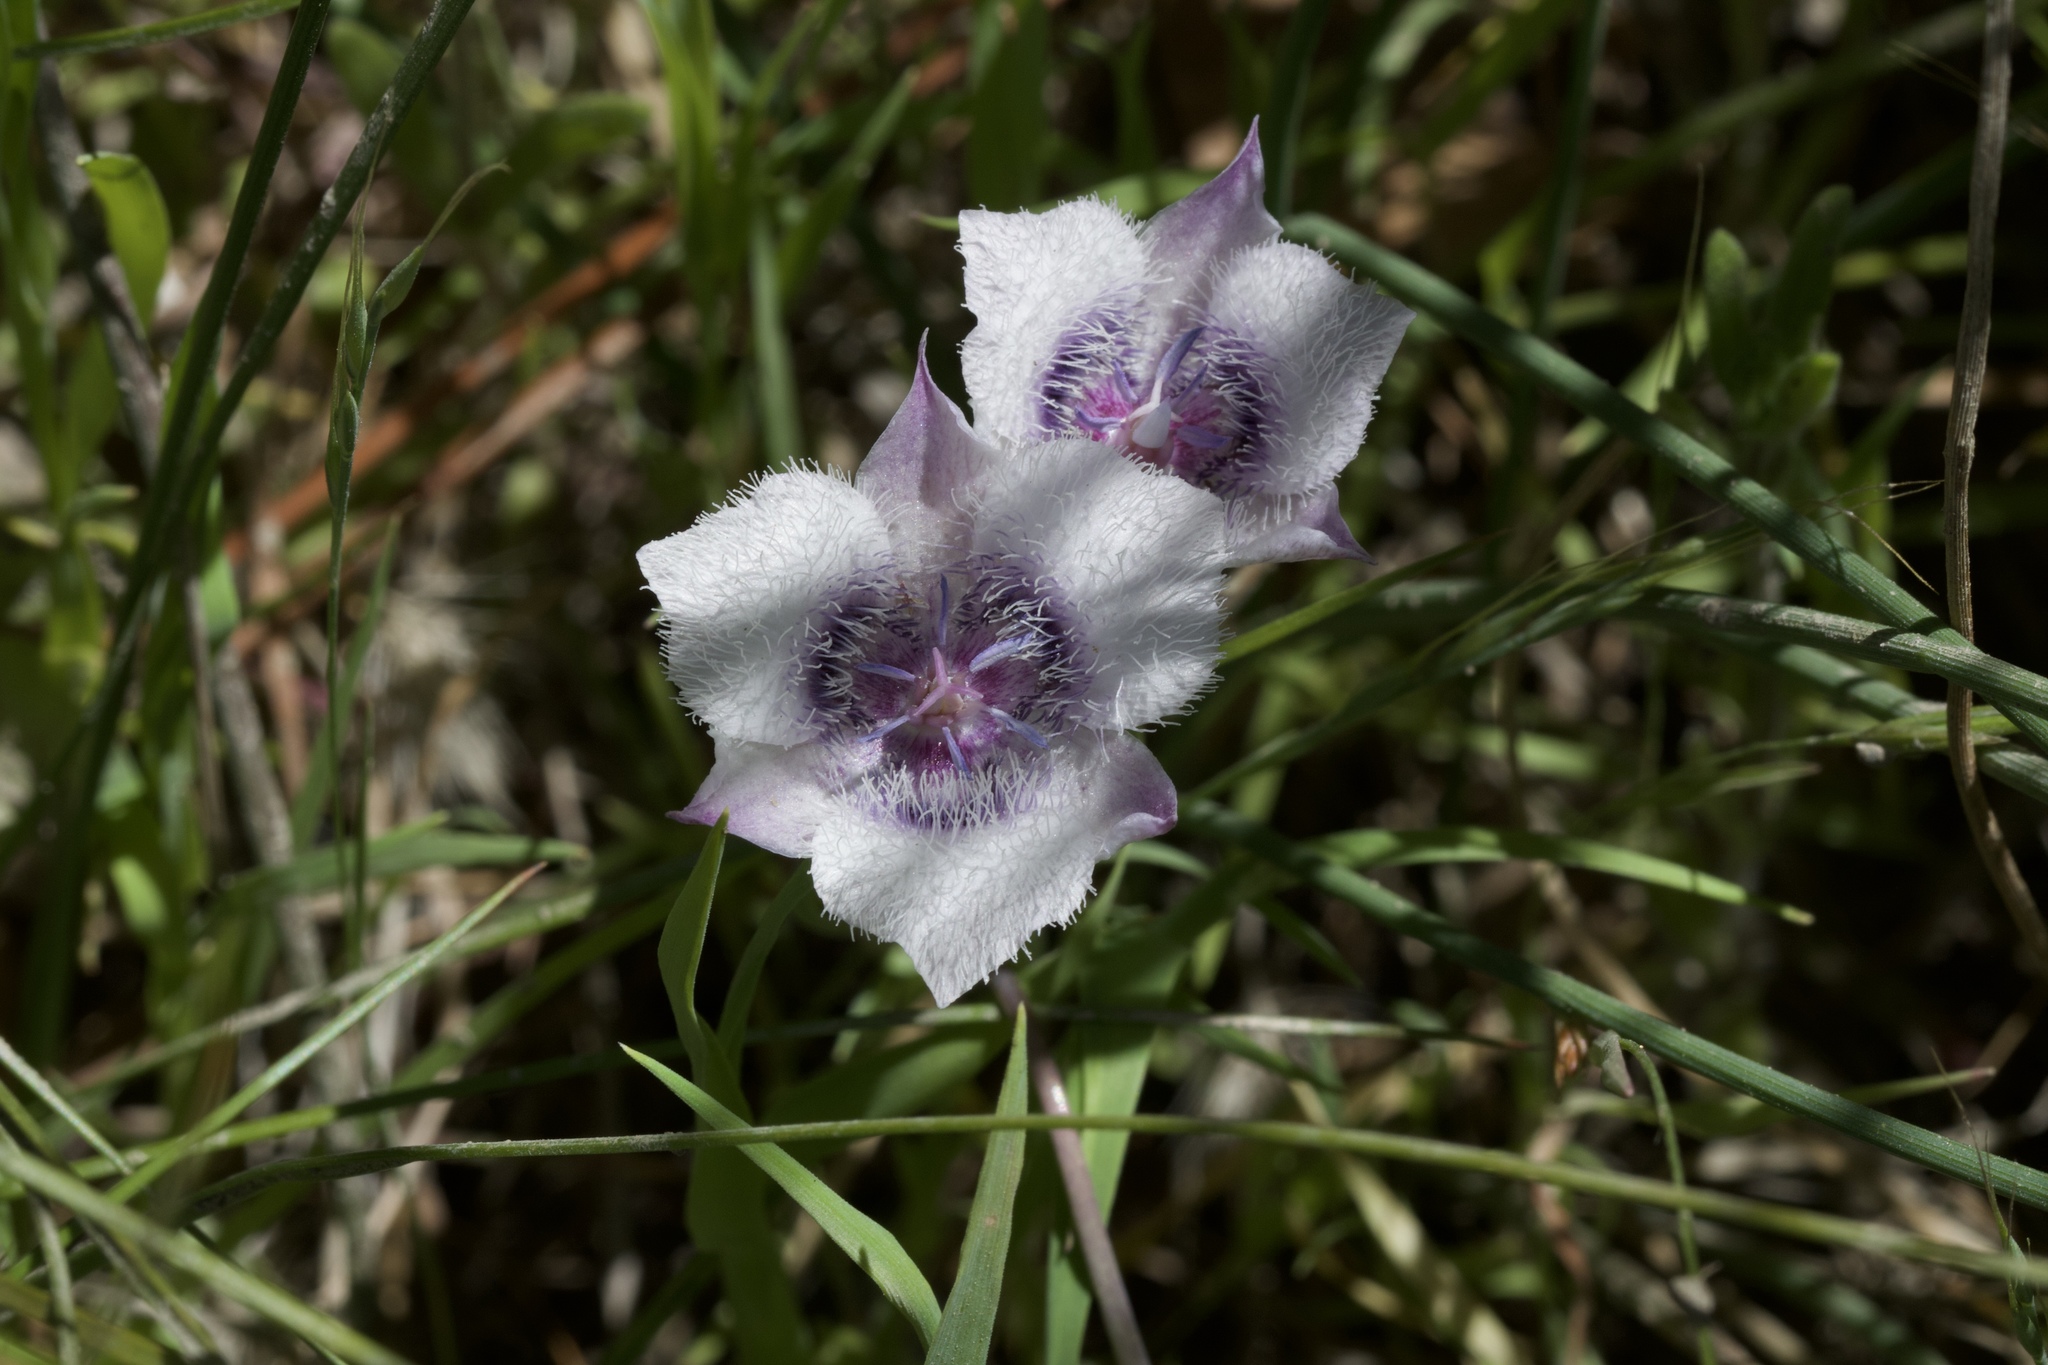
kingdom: Plantae
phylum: Tracheophyta
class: Liliopsida
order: Liliales
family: Liliaceae
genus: Calochortus
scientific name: Calochortus tolmiei
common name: Pussy-ears
